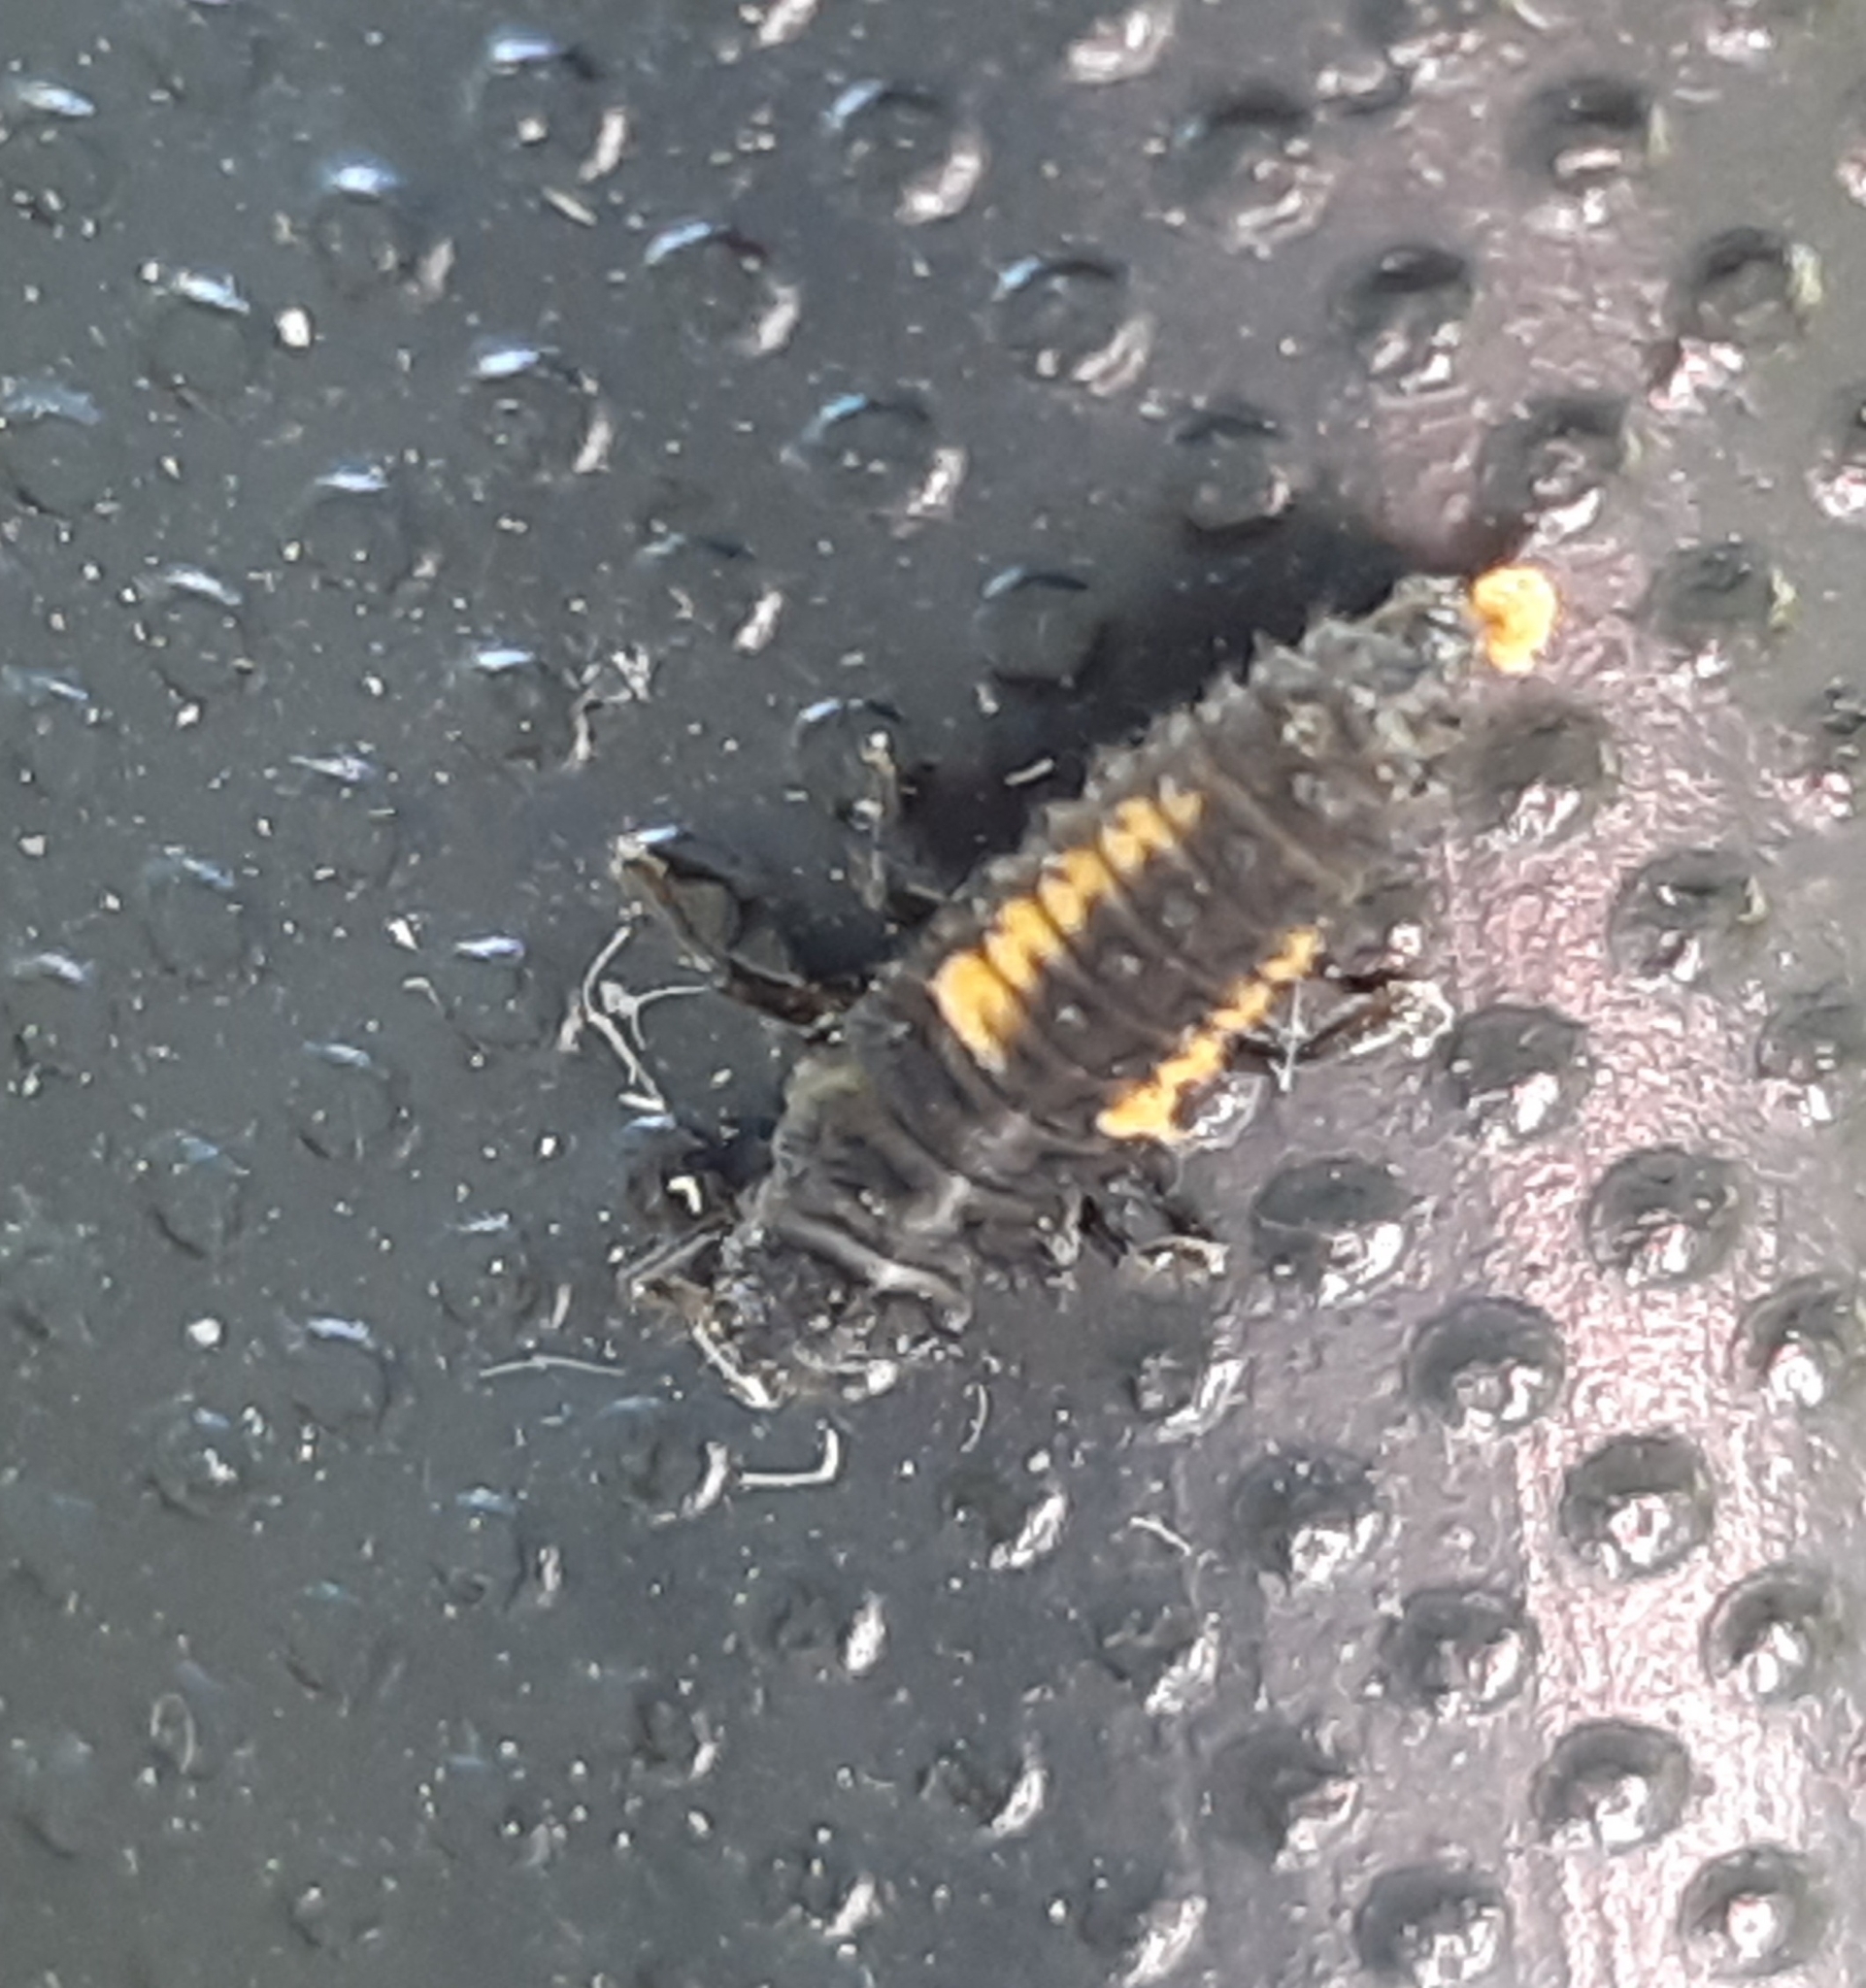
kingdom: Animalia
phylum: Arthropoda
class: Insecta
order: Coleoptera
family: Coccinellidae
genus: Harmonia
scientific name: Harmonia axyridis
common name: Harlequin ladybird
